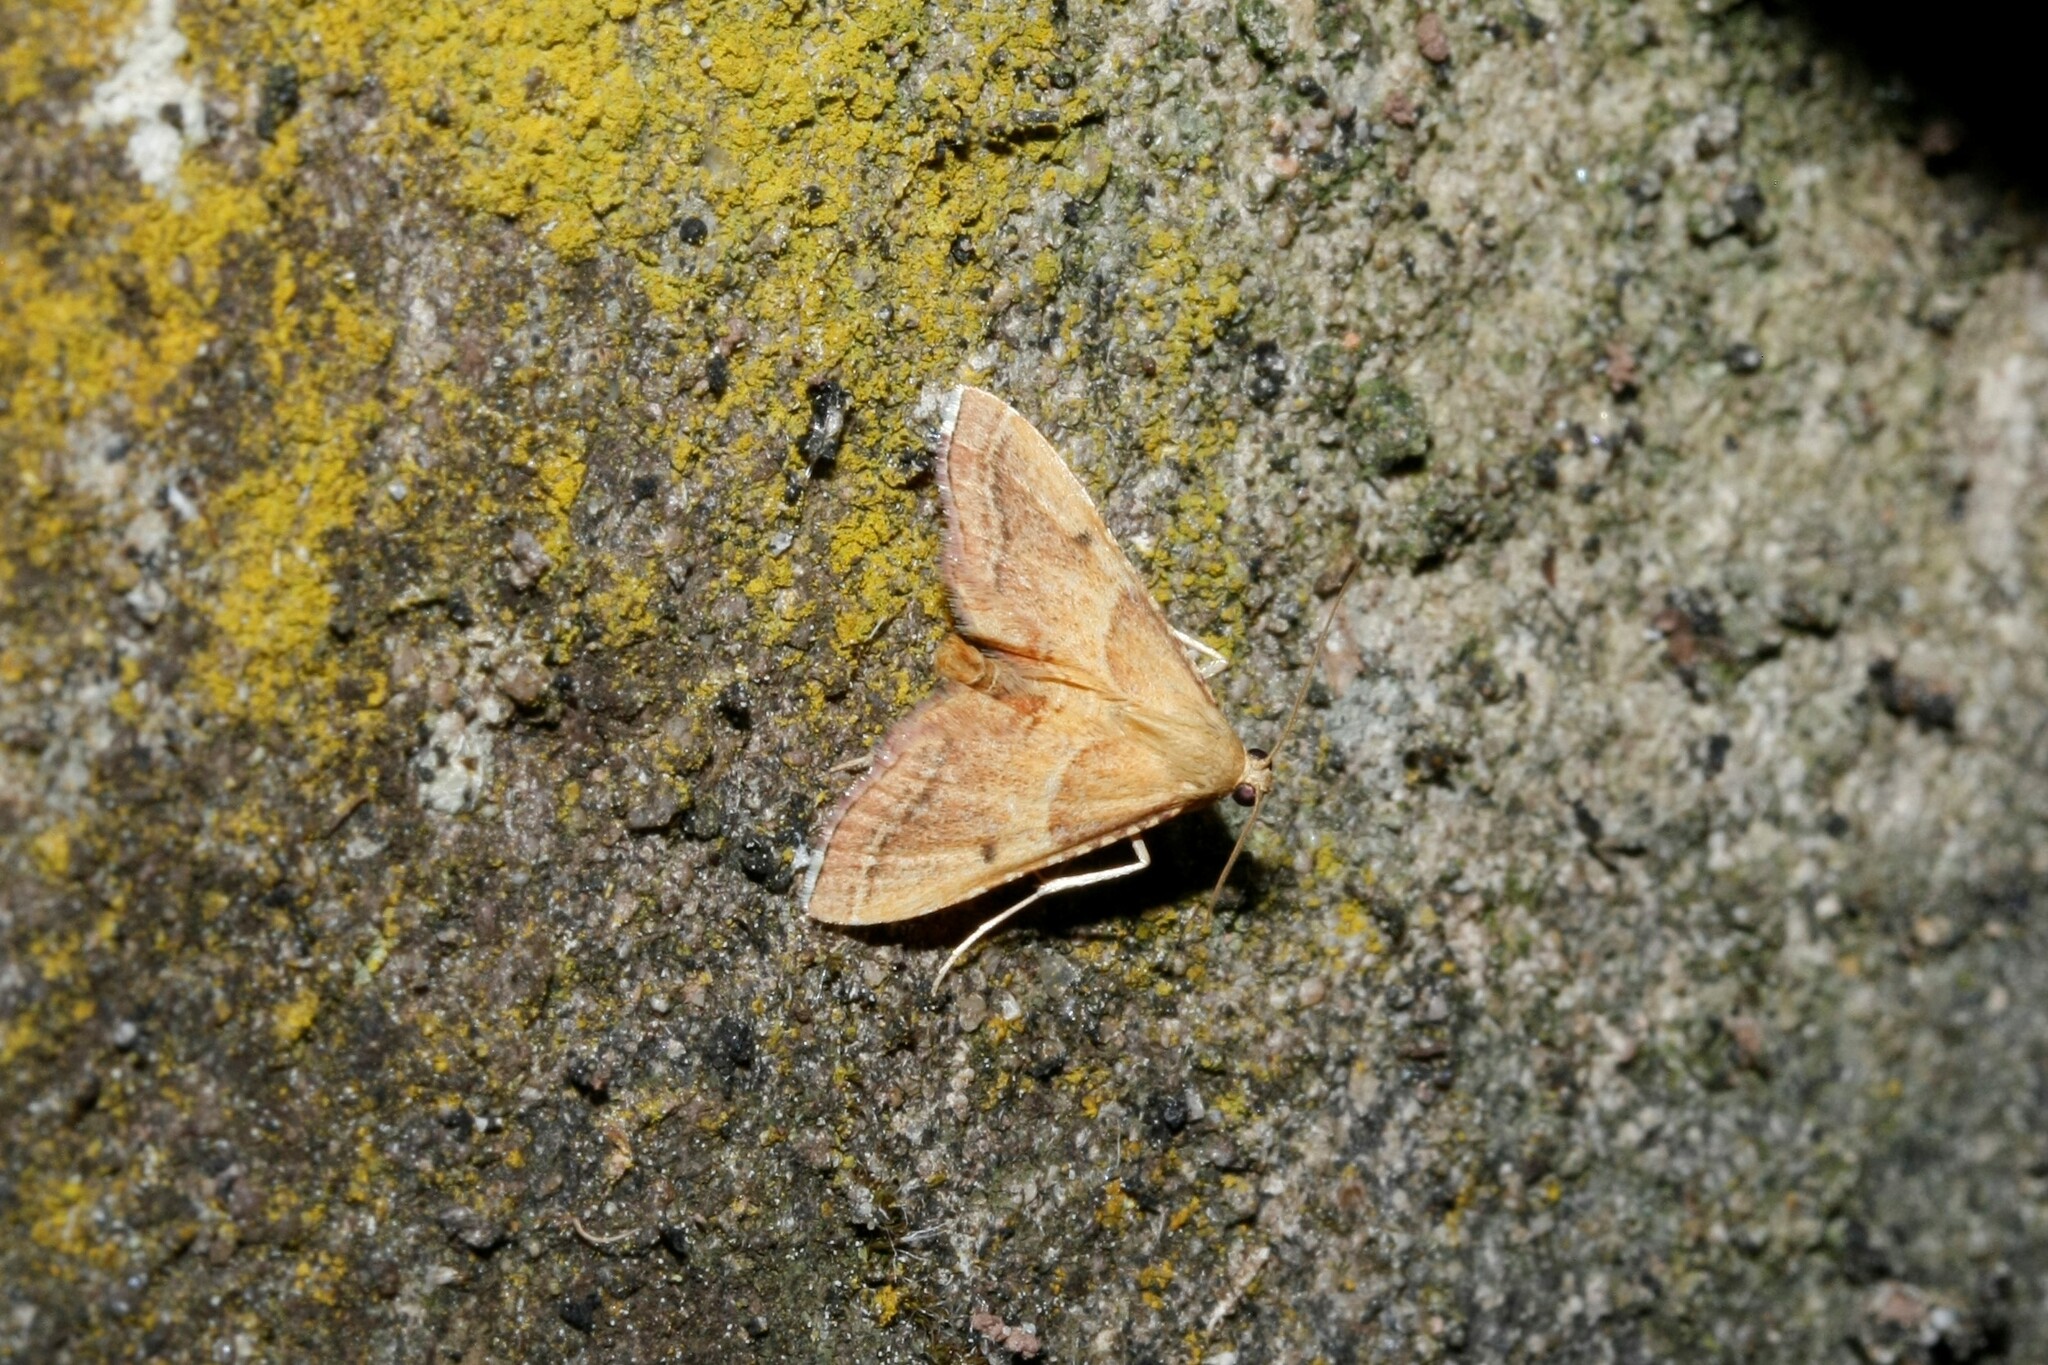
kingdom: Animalia
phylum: Arthropoda
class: Insecta
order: Lepidoptera
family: Pyralidae
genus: Endotricha
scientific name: Endotricha flammealis
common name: Rosy tabby
